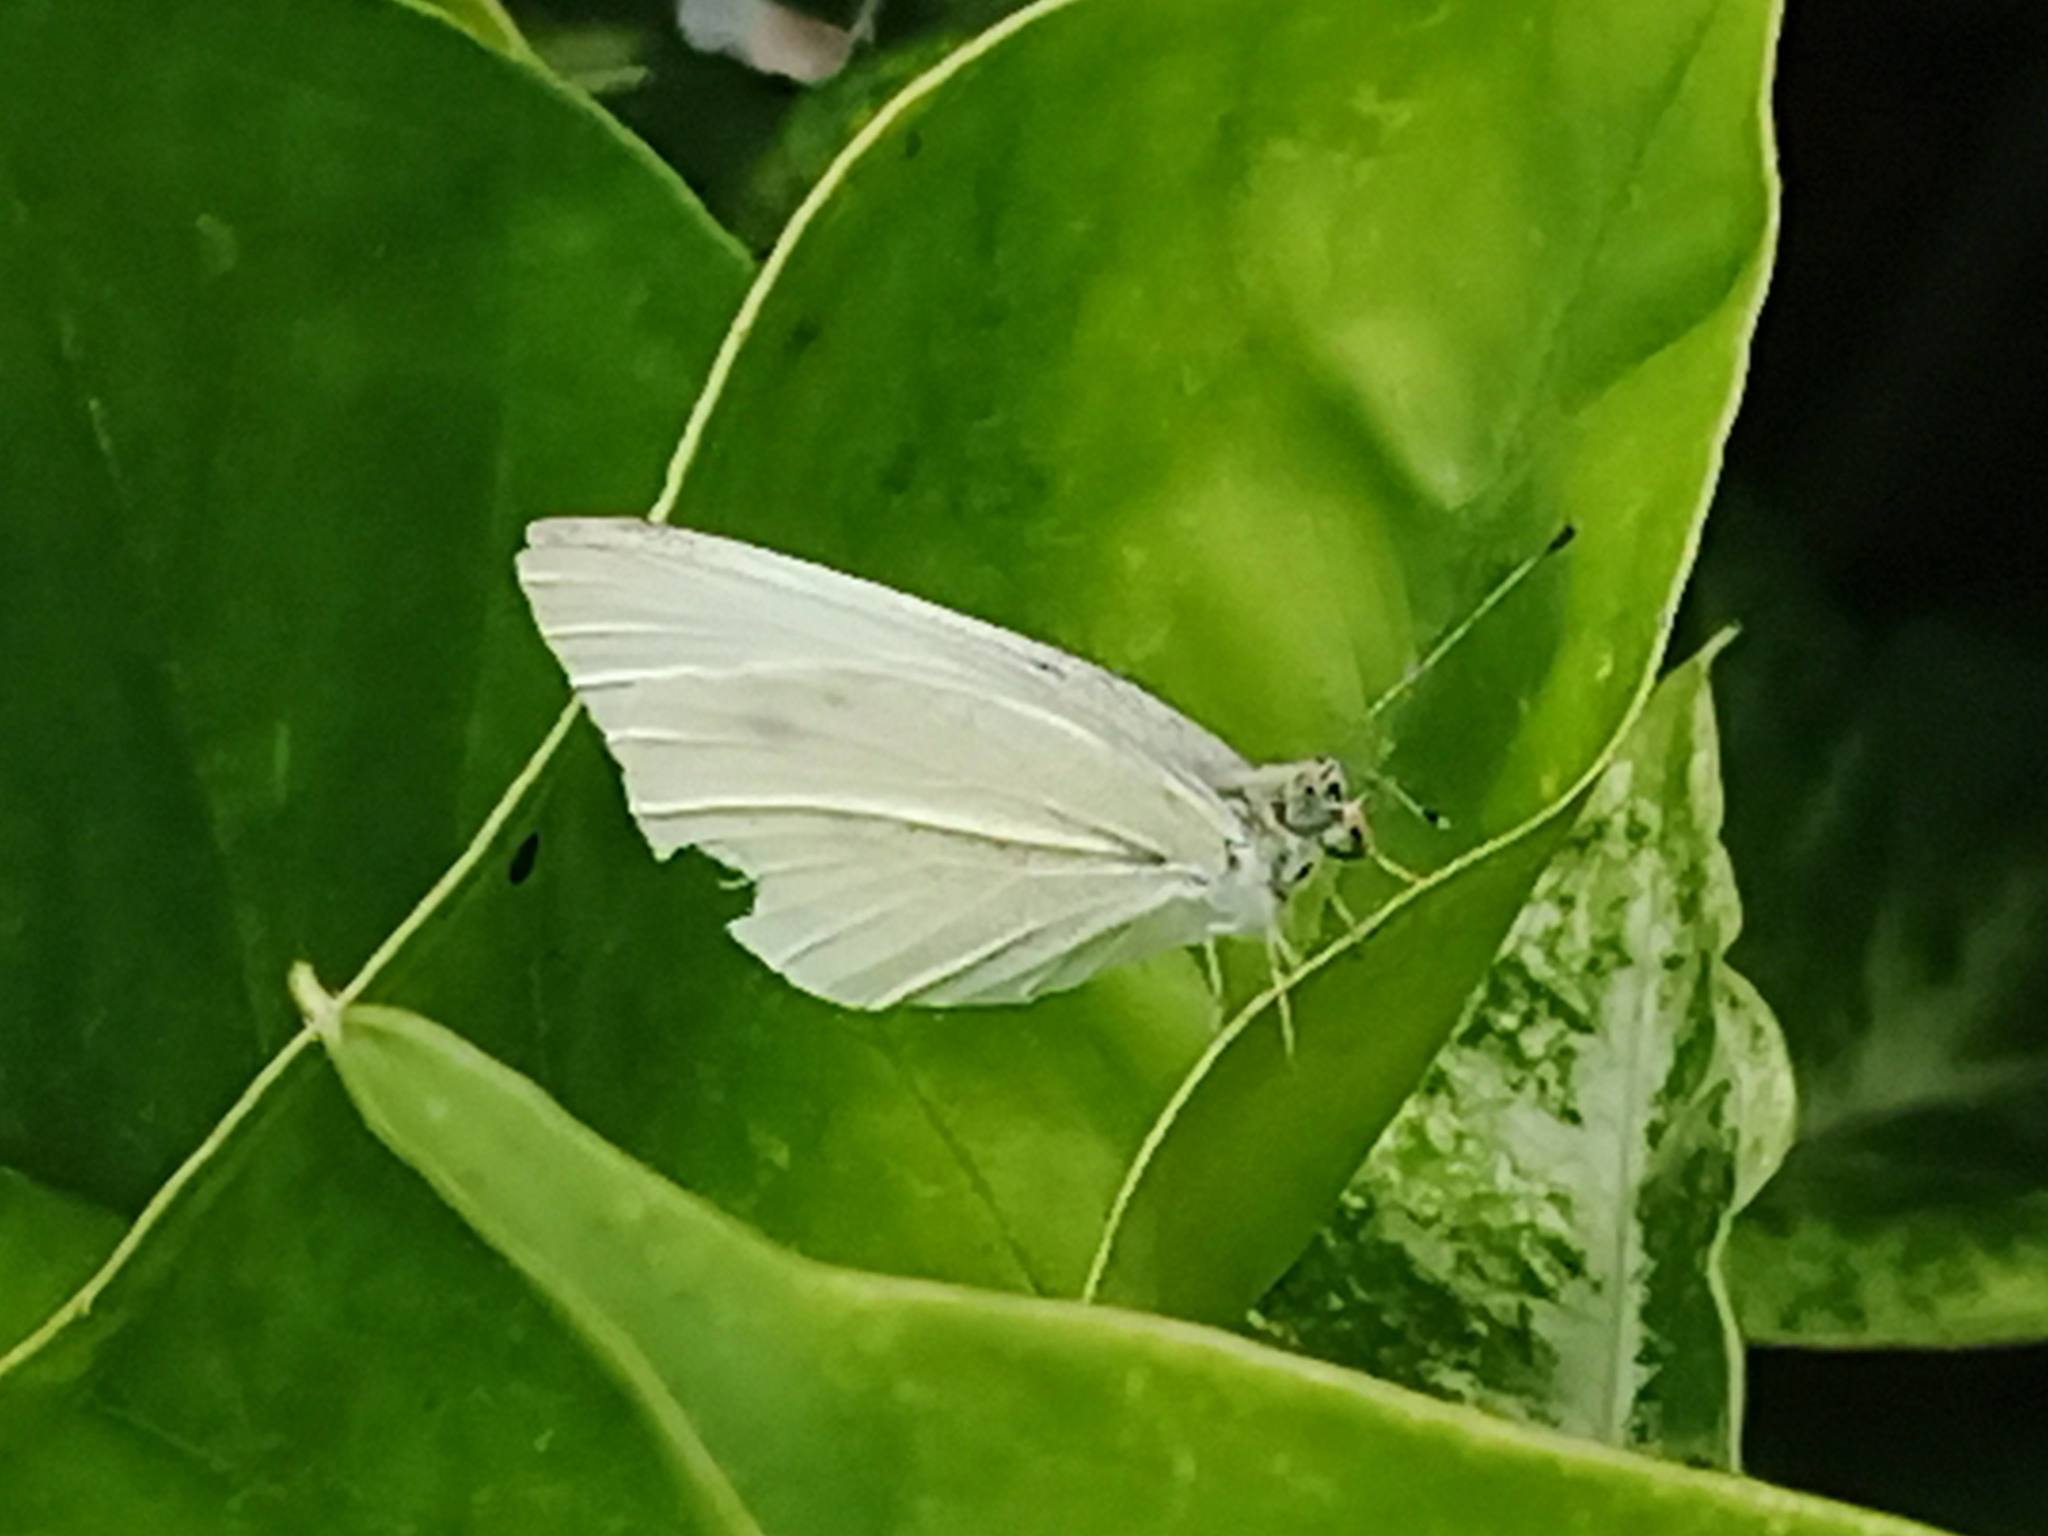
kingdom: Animalia
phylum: Arthropoda
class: Insecta
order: Lepidoptera
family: Pieridae
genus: Pieris
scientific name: Pieris rapae
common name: Small white
